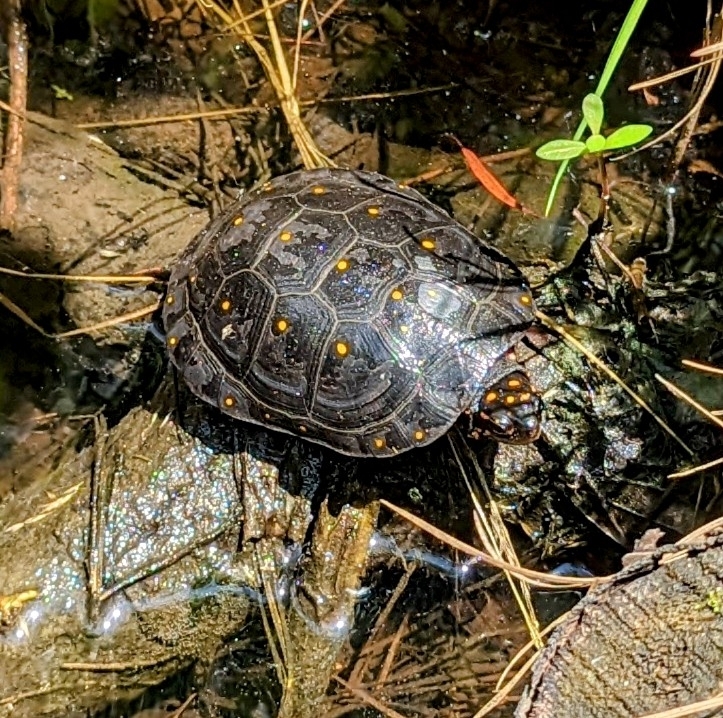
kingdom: Animalia
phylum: Chordata
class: Testudines
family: Emydidae
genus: Clemmys
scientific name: Clemmys guttata
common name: Spotted turtle
